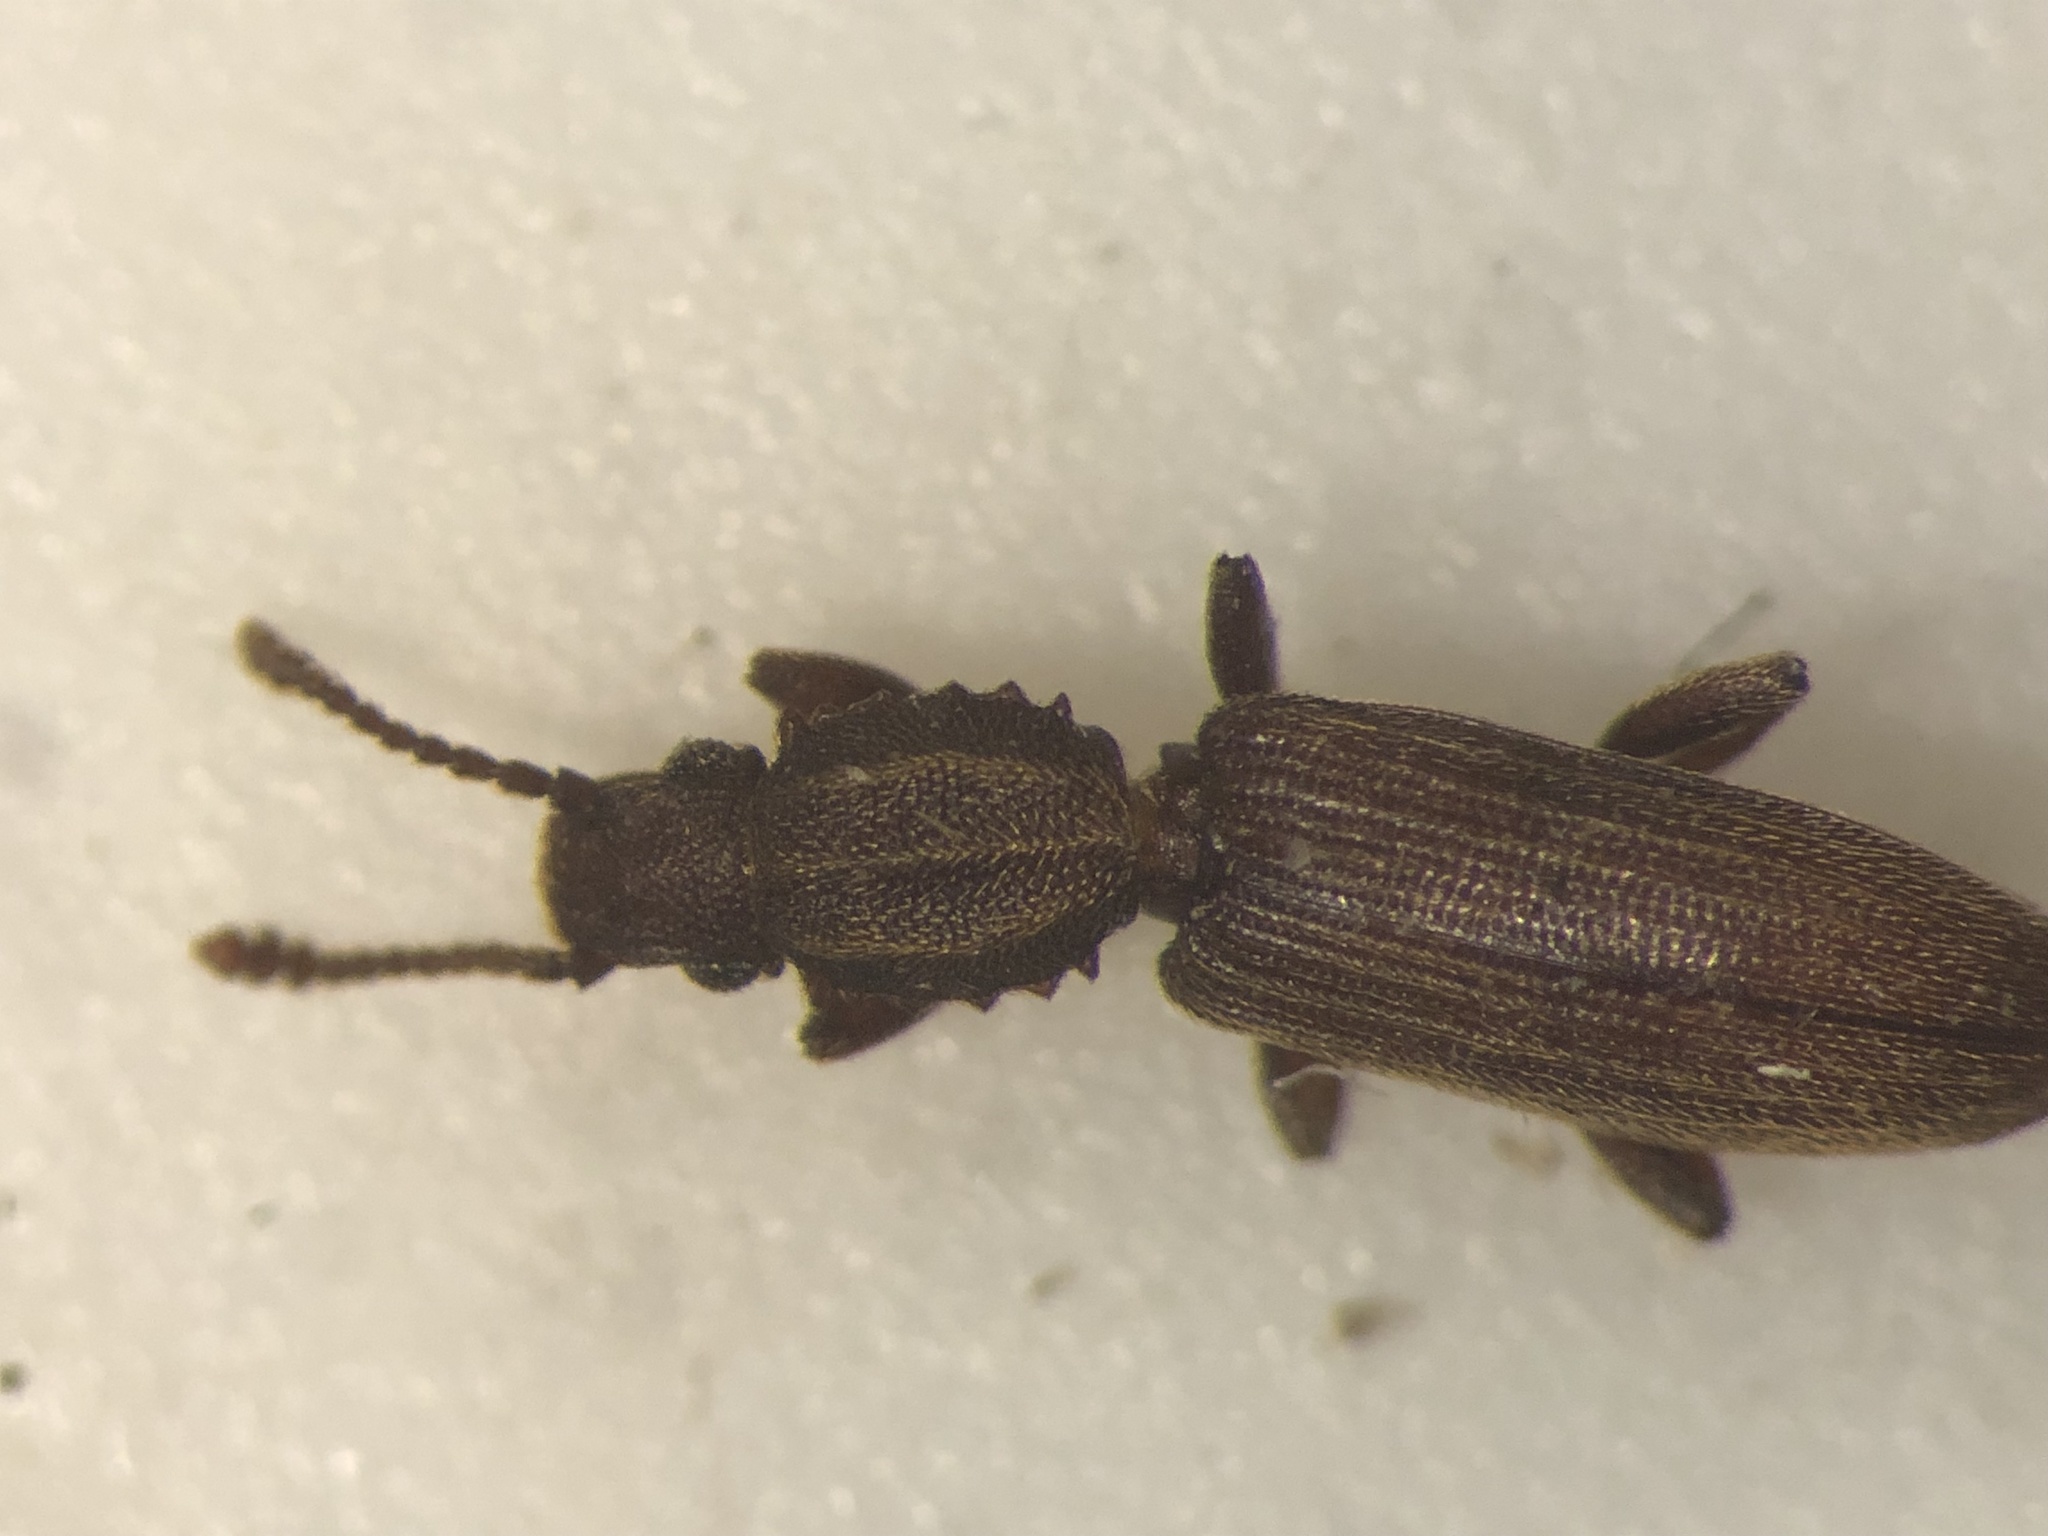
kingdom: Animalia
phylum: Arthropoda
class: Insecta
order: Coleoptera
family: Silvanidae
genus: Oryzaephilus
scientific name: Oryzaephilus mercator
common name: Merchant grain beetle
